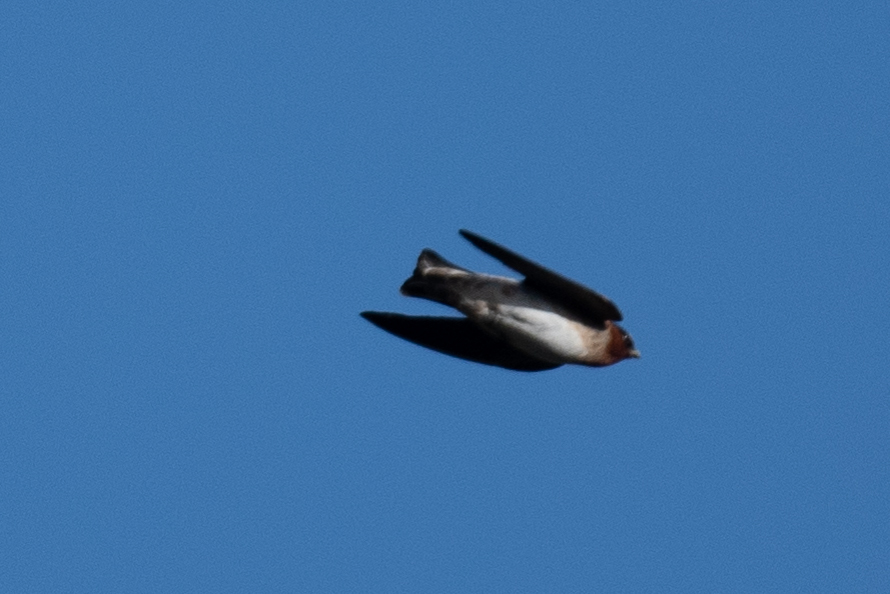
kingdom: Animalia
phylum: Chordata
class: Aves
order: Passeriformes
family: Hirundinidae
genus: Petrochelidon
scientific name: Petrochelidon pyrrhonota
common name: American cliff swallow
